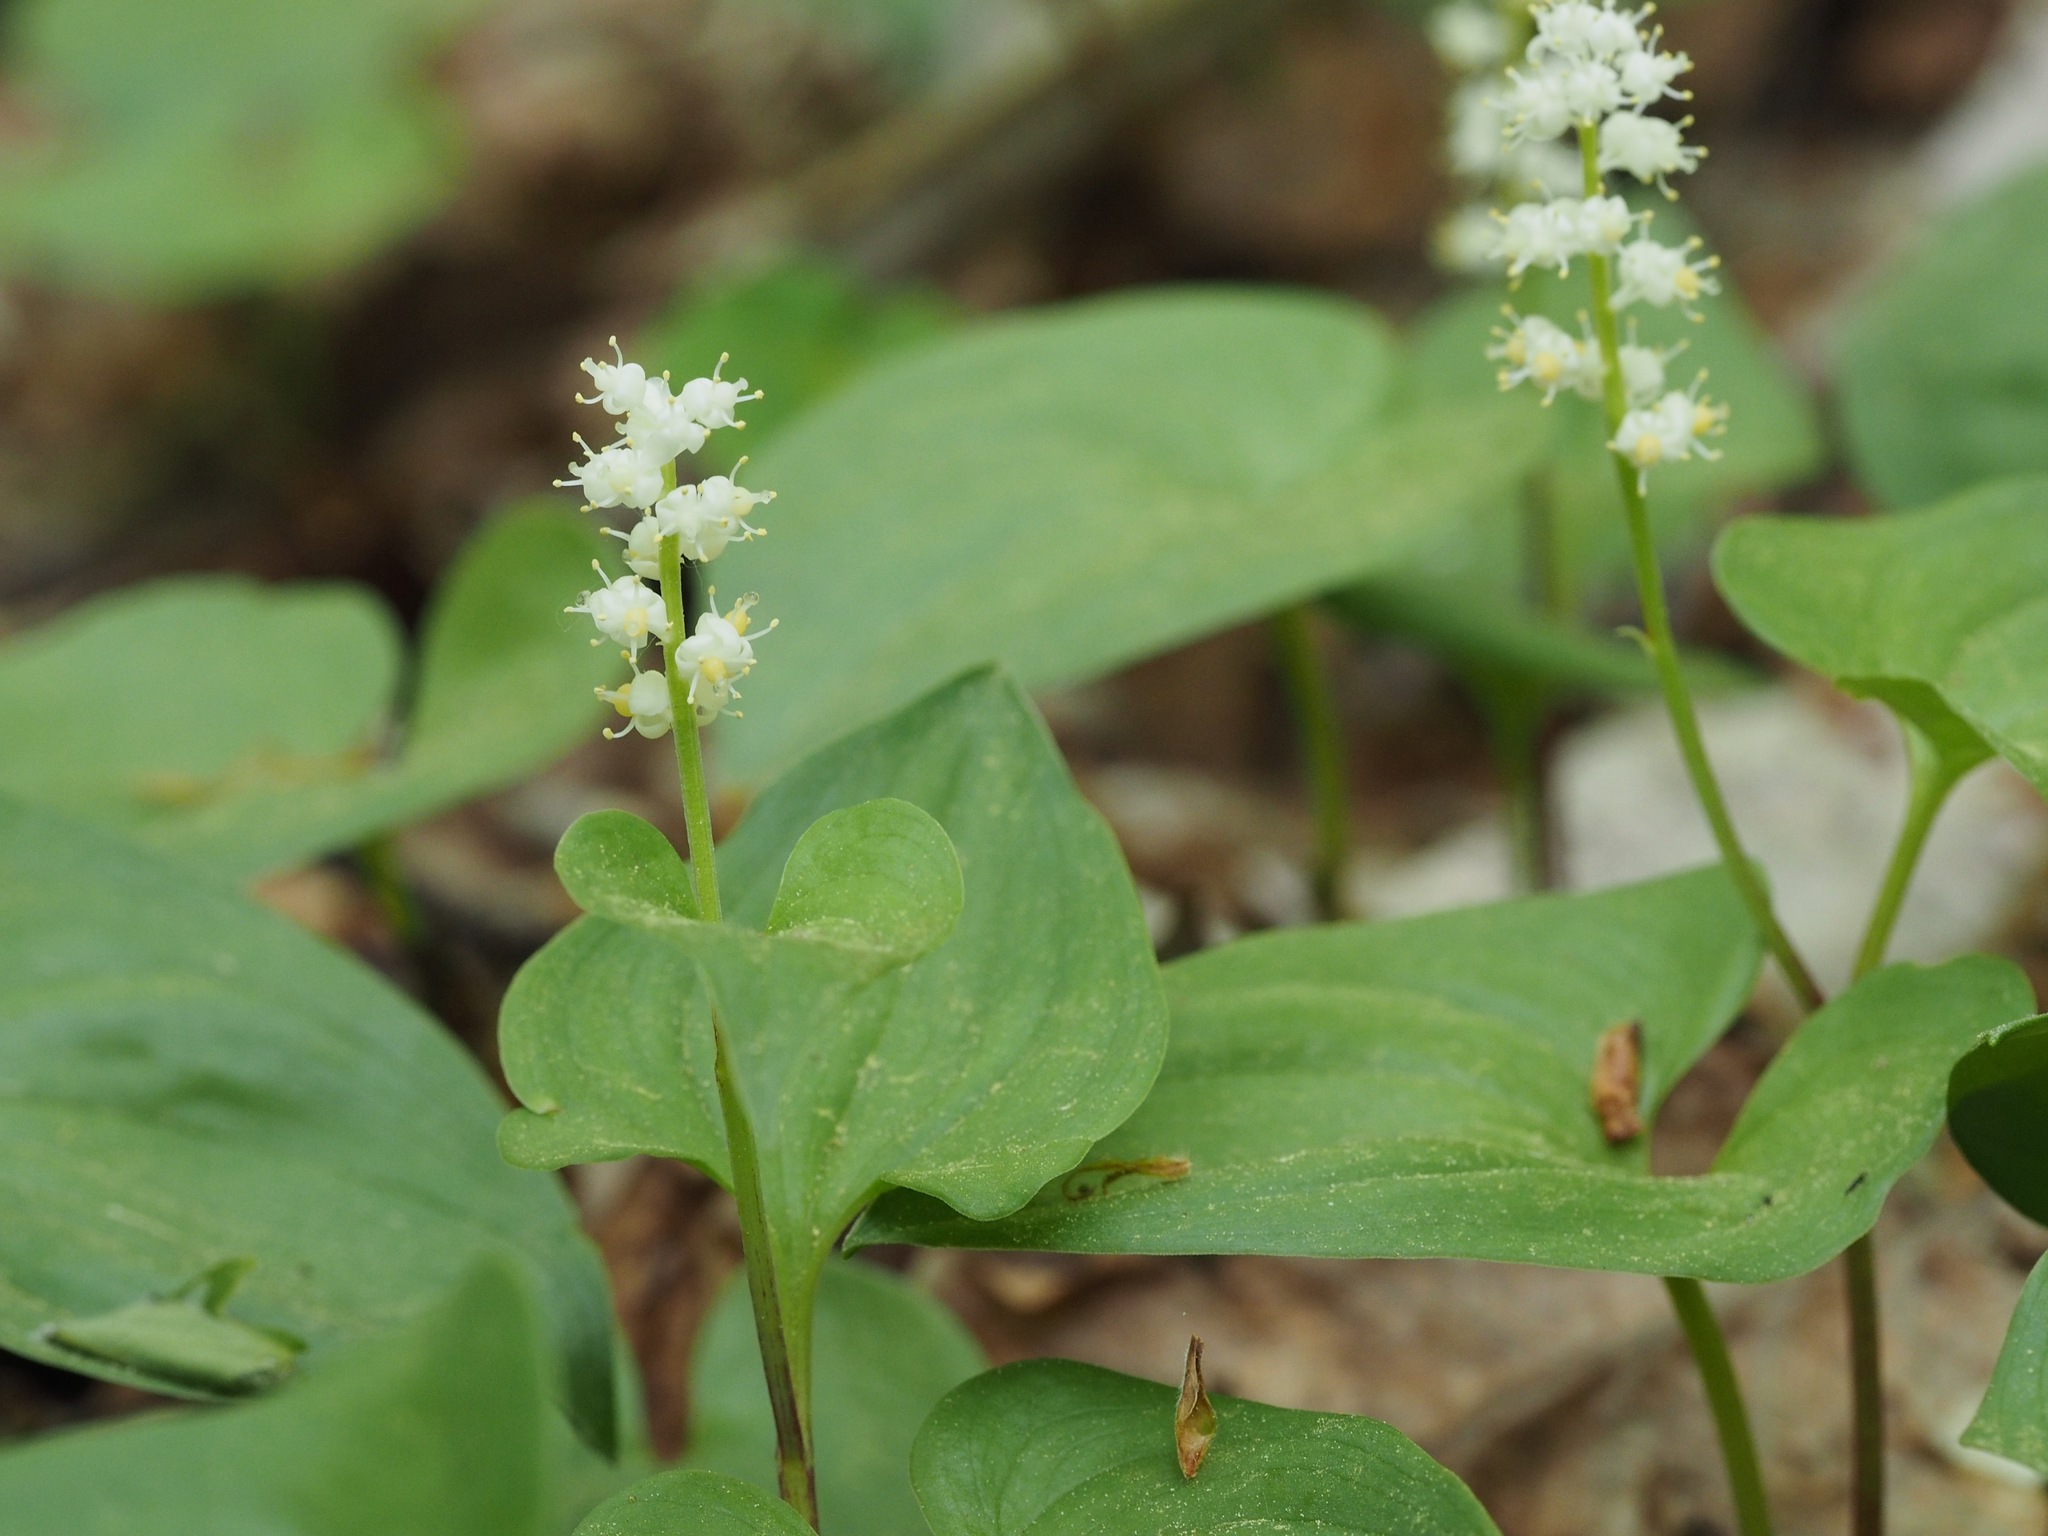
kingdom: Plantae
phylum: Tracheophyta
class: Liliopsida
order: Asparagales
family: Asparagaceae
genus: Maianthemum
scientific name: Maianthemum dilatatum
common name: False lily-of-the-valley
